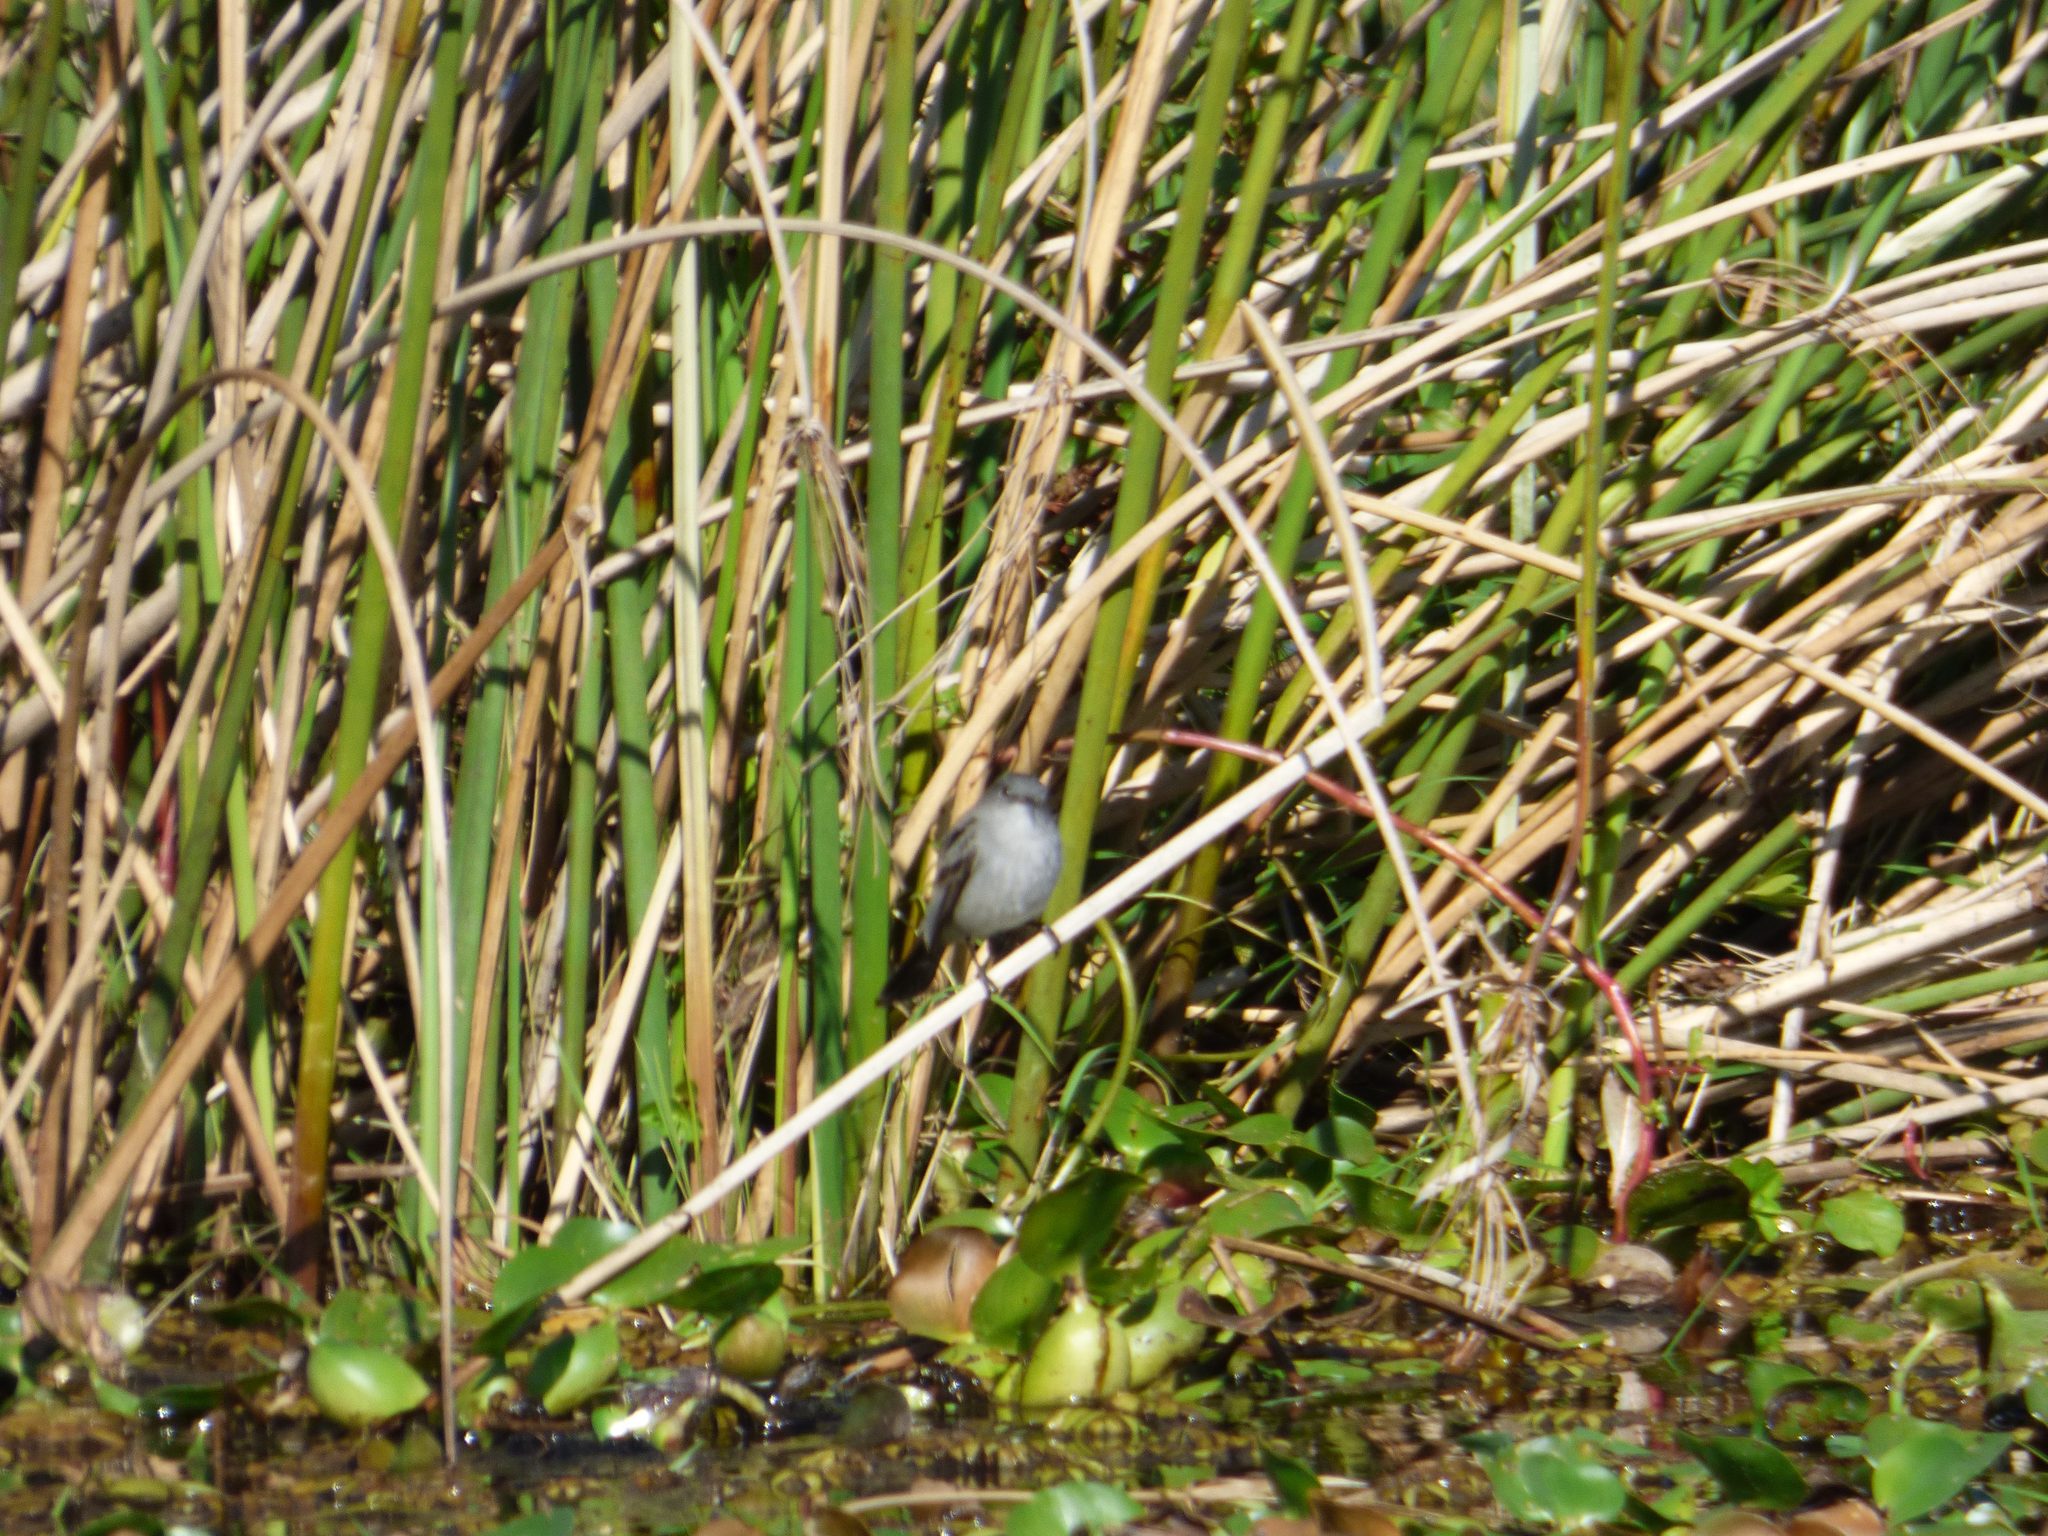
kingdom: Animalia
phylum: Chordata
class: Aves
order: Passeriformes
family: Tyrannidae
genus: Serpophaga
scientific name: Serpophaga nigricans
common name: Sooty tyrannulet
